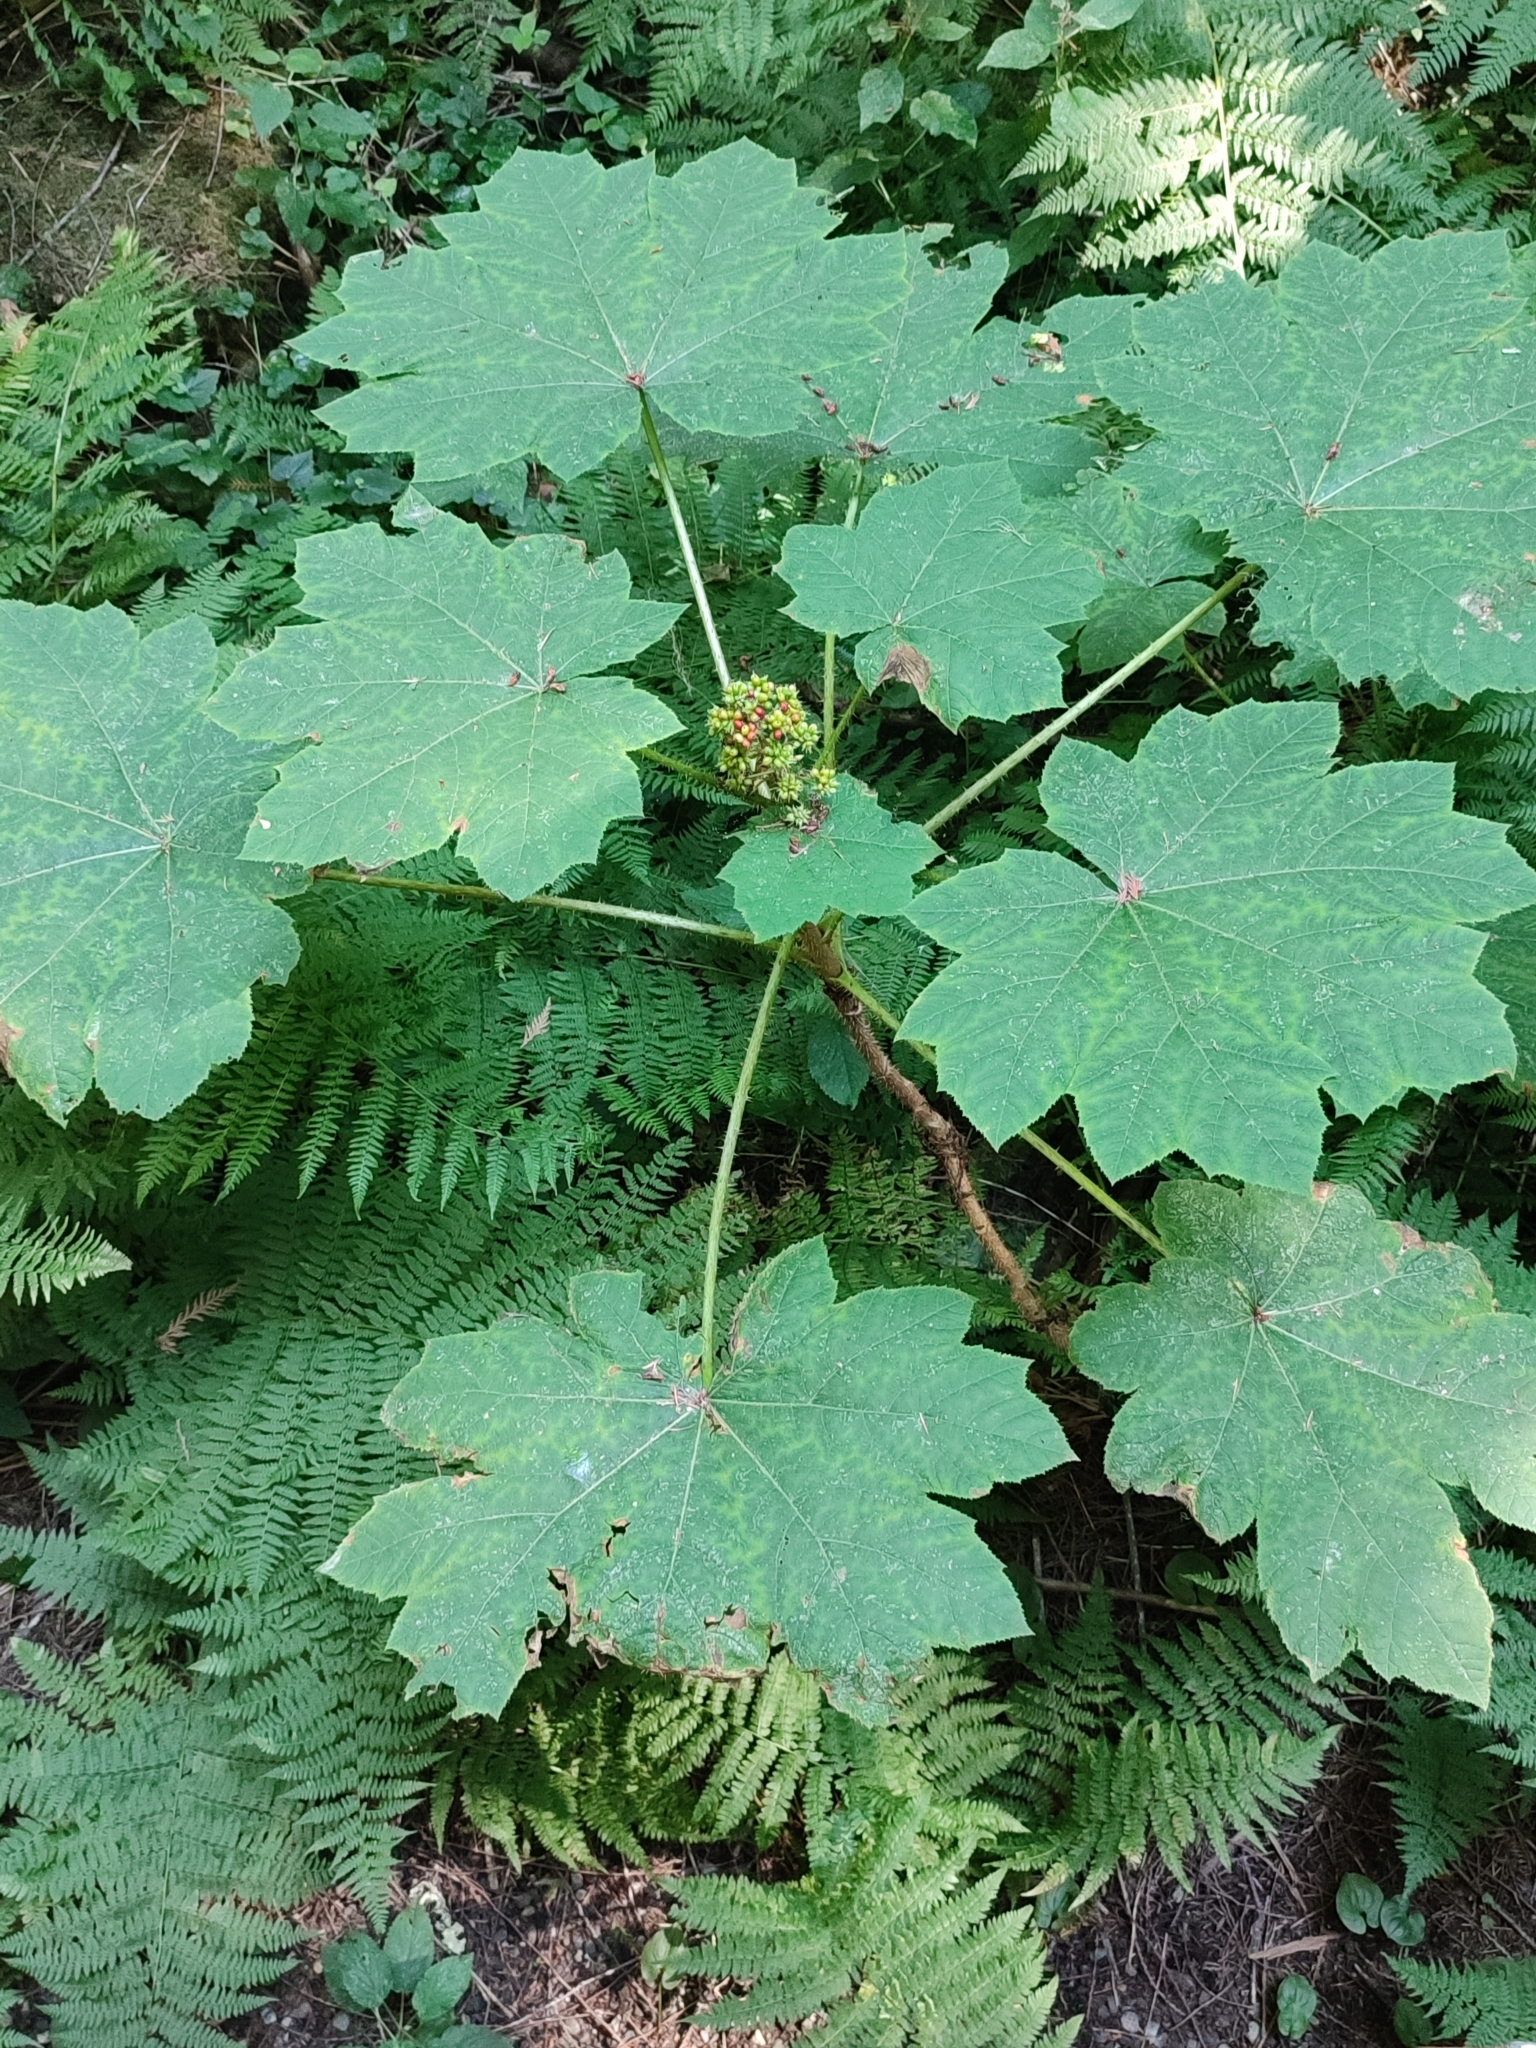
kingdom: Plantae
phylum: Tracheophyta
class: Magnoliopsida
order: Apiales
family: Araliaceae
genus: Oplopanax
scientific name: Oplopanax horridus
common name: Devil's walking-stick
